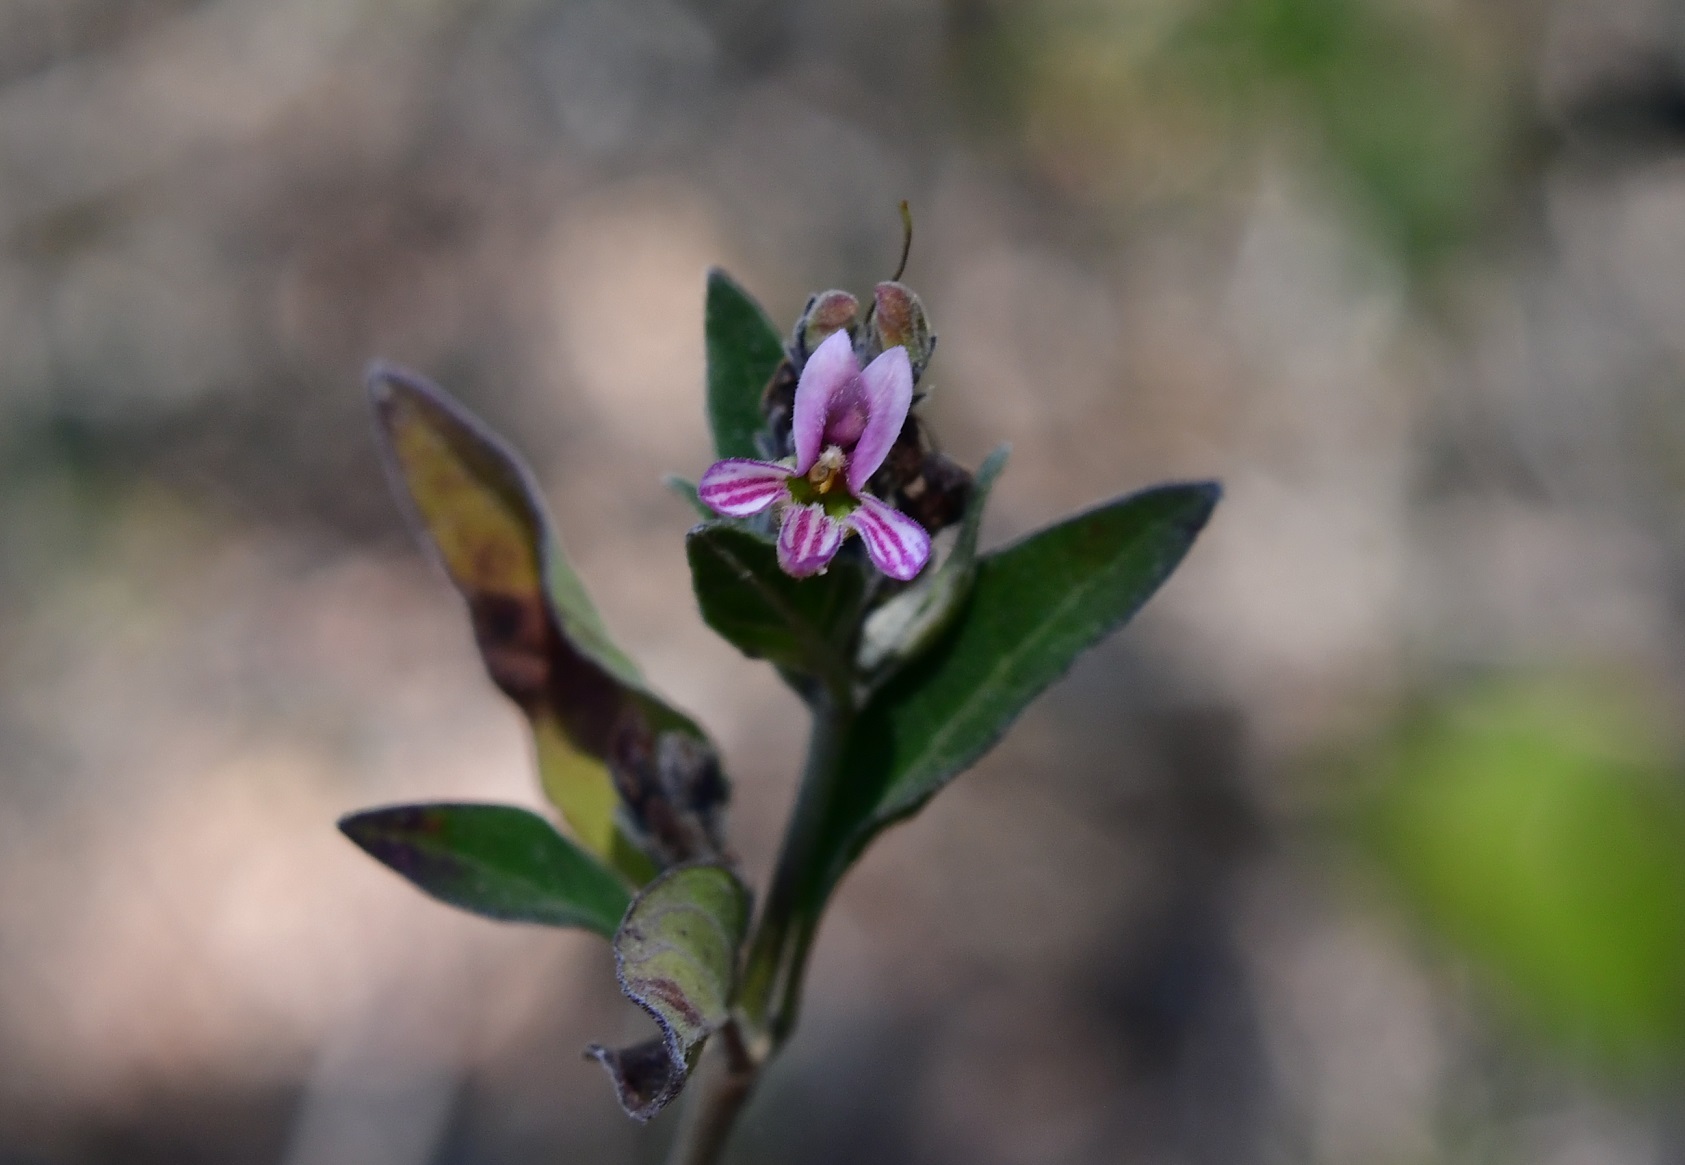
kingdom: Plantae
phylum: Tracheophyta
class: Magnoliopsida
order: Lamiales
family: Acanthaceae
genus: Holographis
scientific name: Holographis parayana
